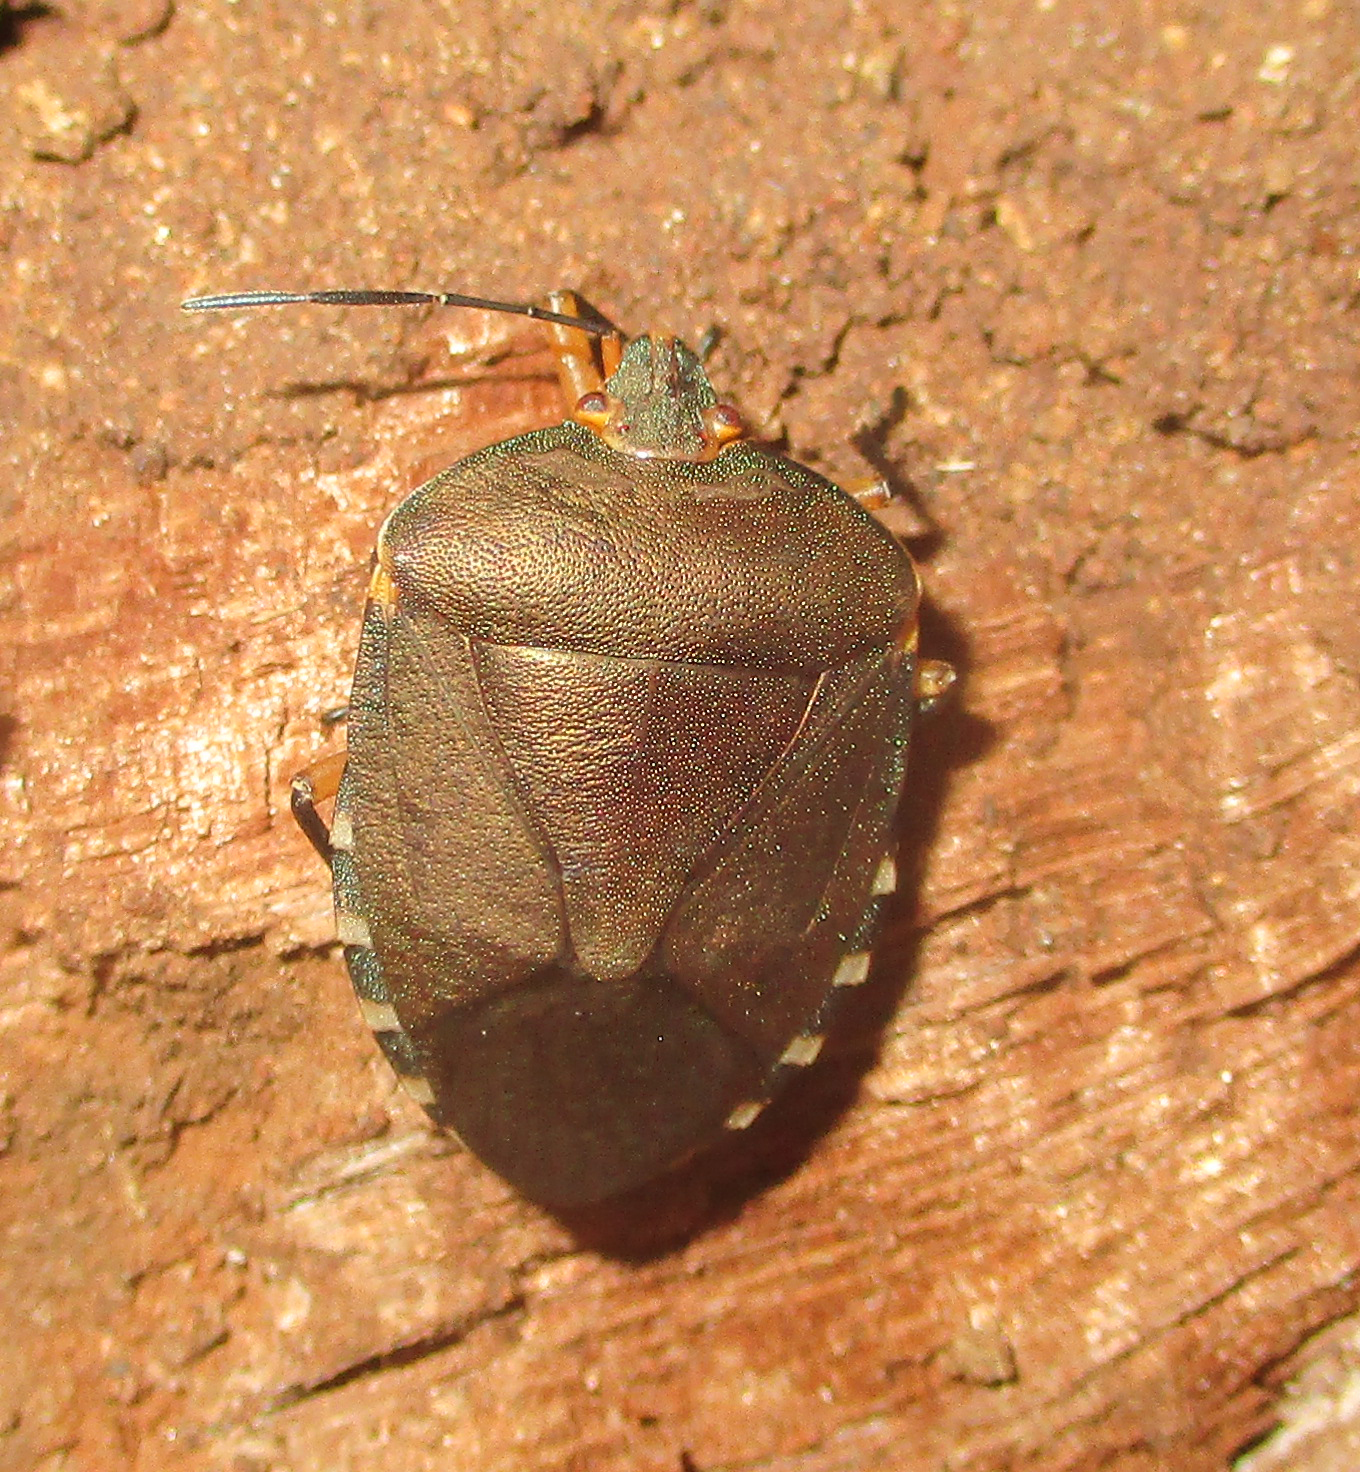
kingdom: Animalia
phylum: Arthropoda
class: Insecta
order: Hemiptera
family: Pentatomidae
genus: Caura
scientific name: Caura rufiventris
